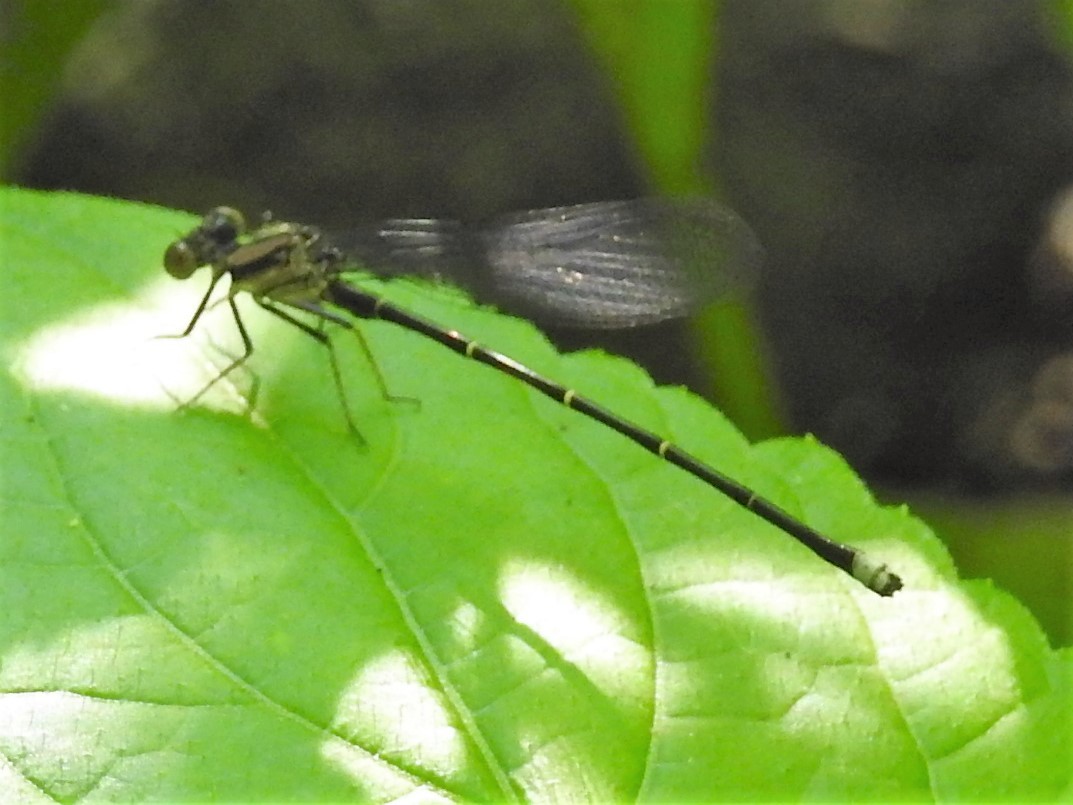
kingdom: Animalia
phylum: Arthropoda
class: Insecta
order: Odonata
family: Coenagrionidae
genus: Argia
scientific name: Argia tibialis
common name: Blue-tipped dancer
